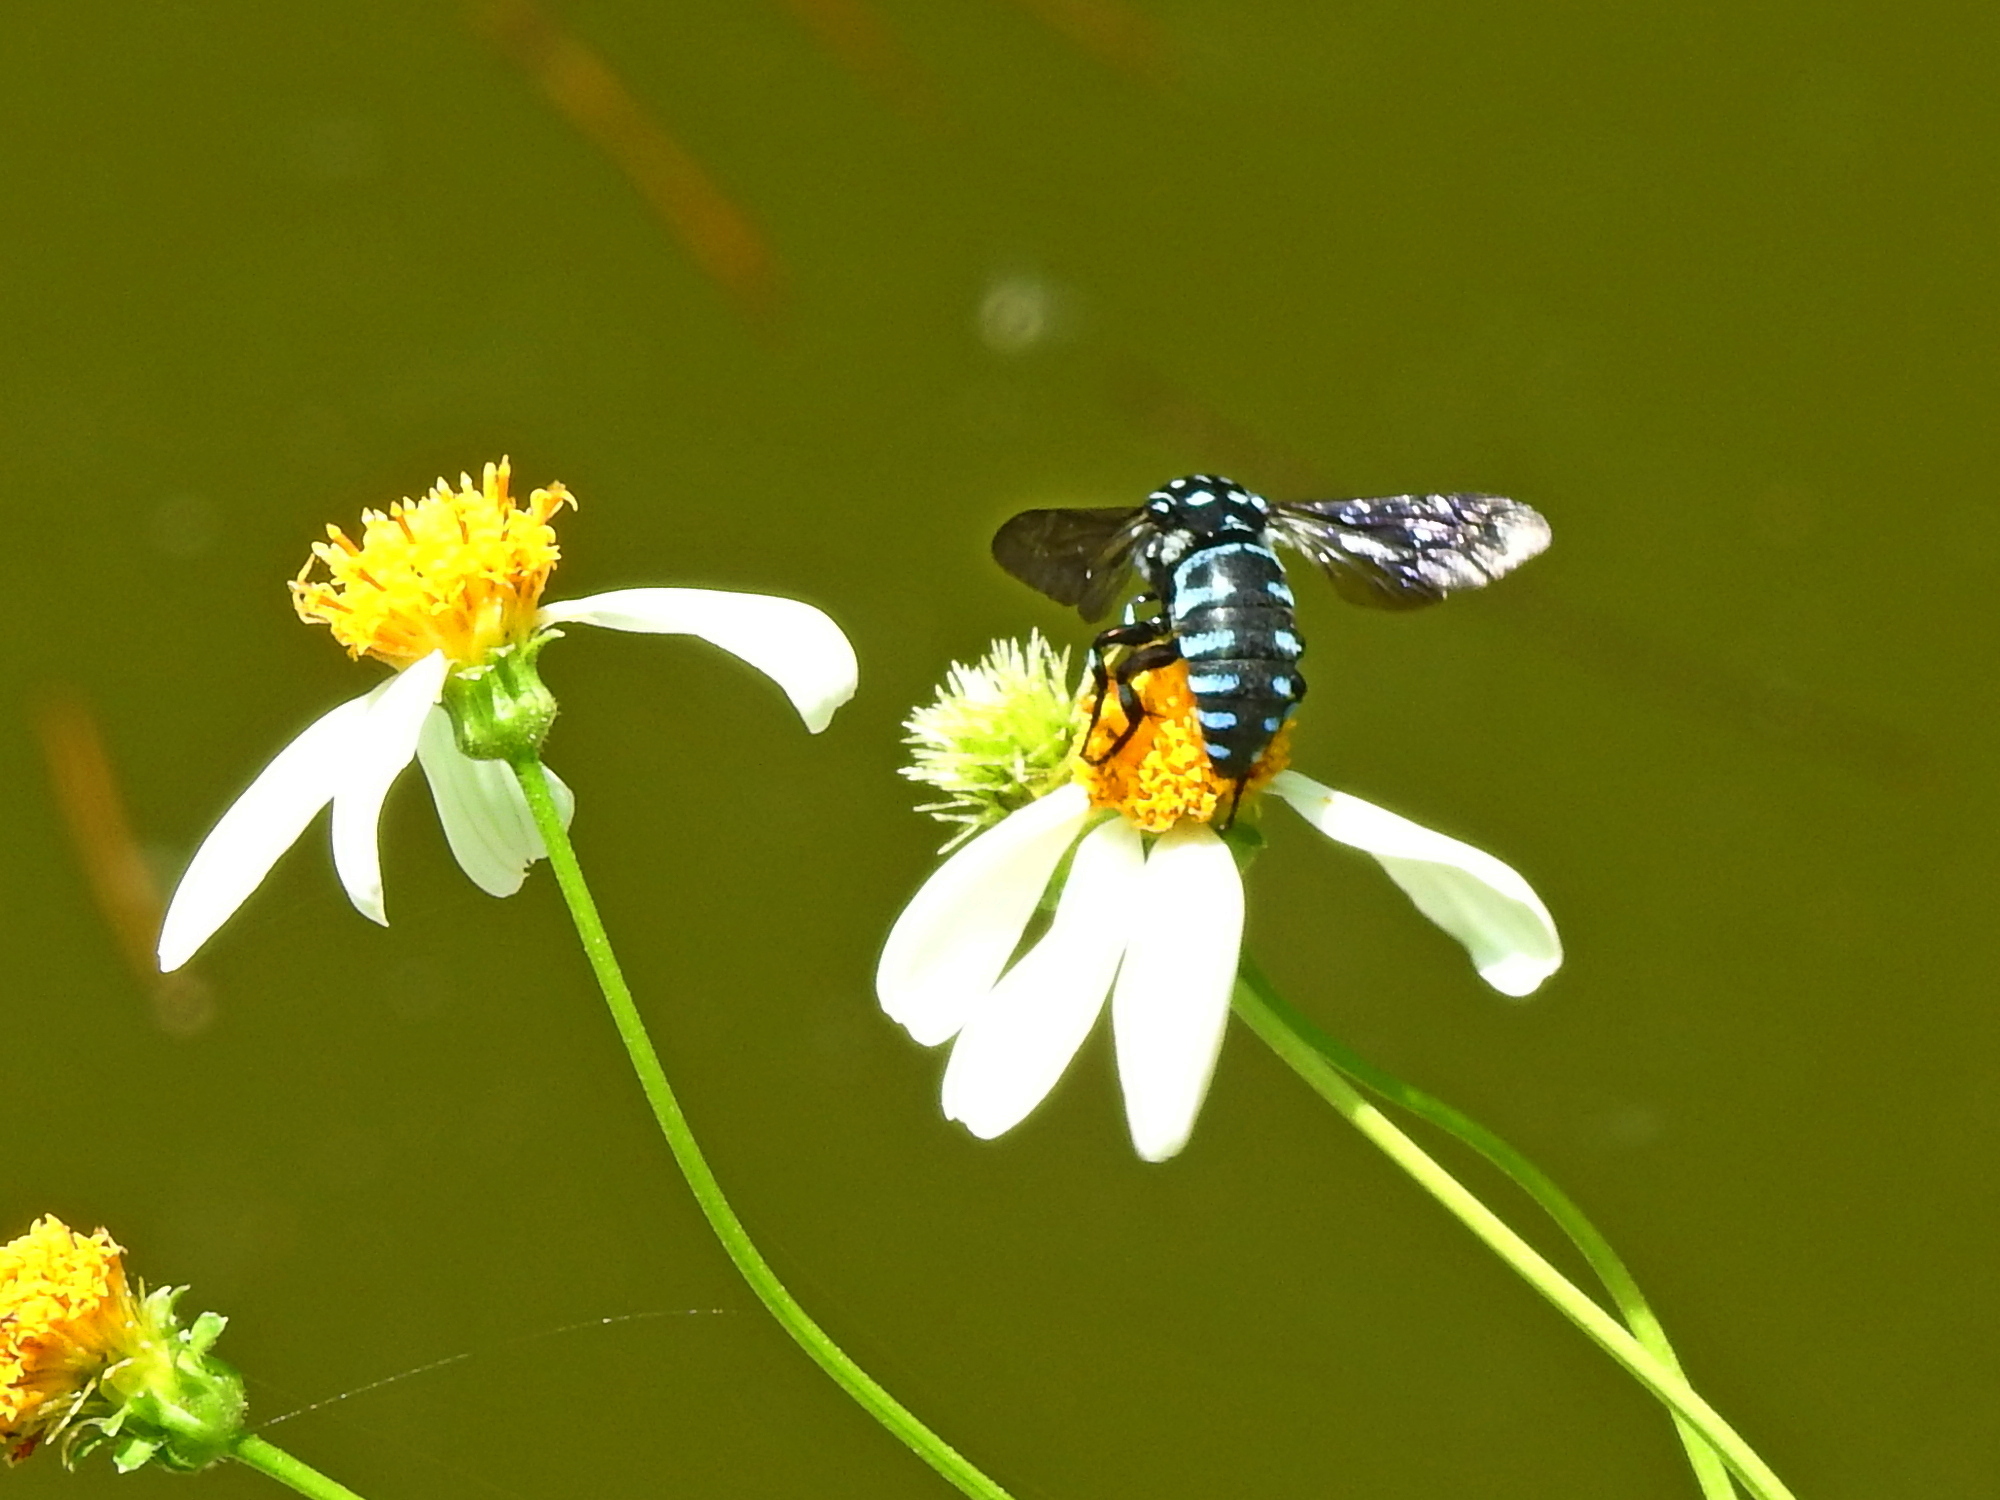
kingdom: Animalia
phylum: Arthropoda
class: Insecta
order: Hymenoptera
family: Apidae
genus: Thyreus
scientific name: Thyreus decorus
